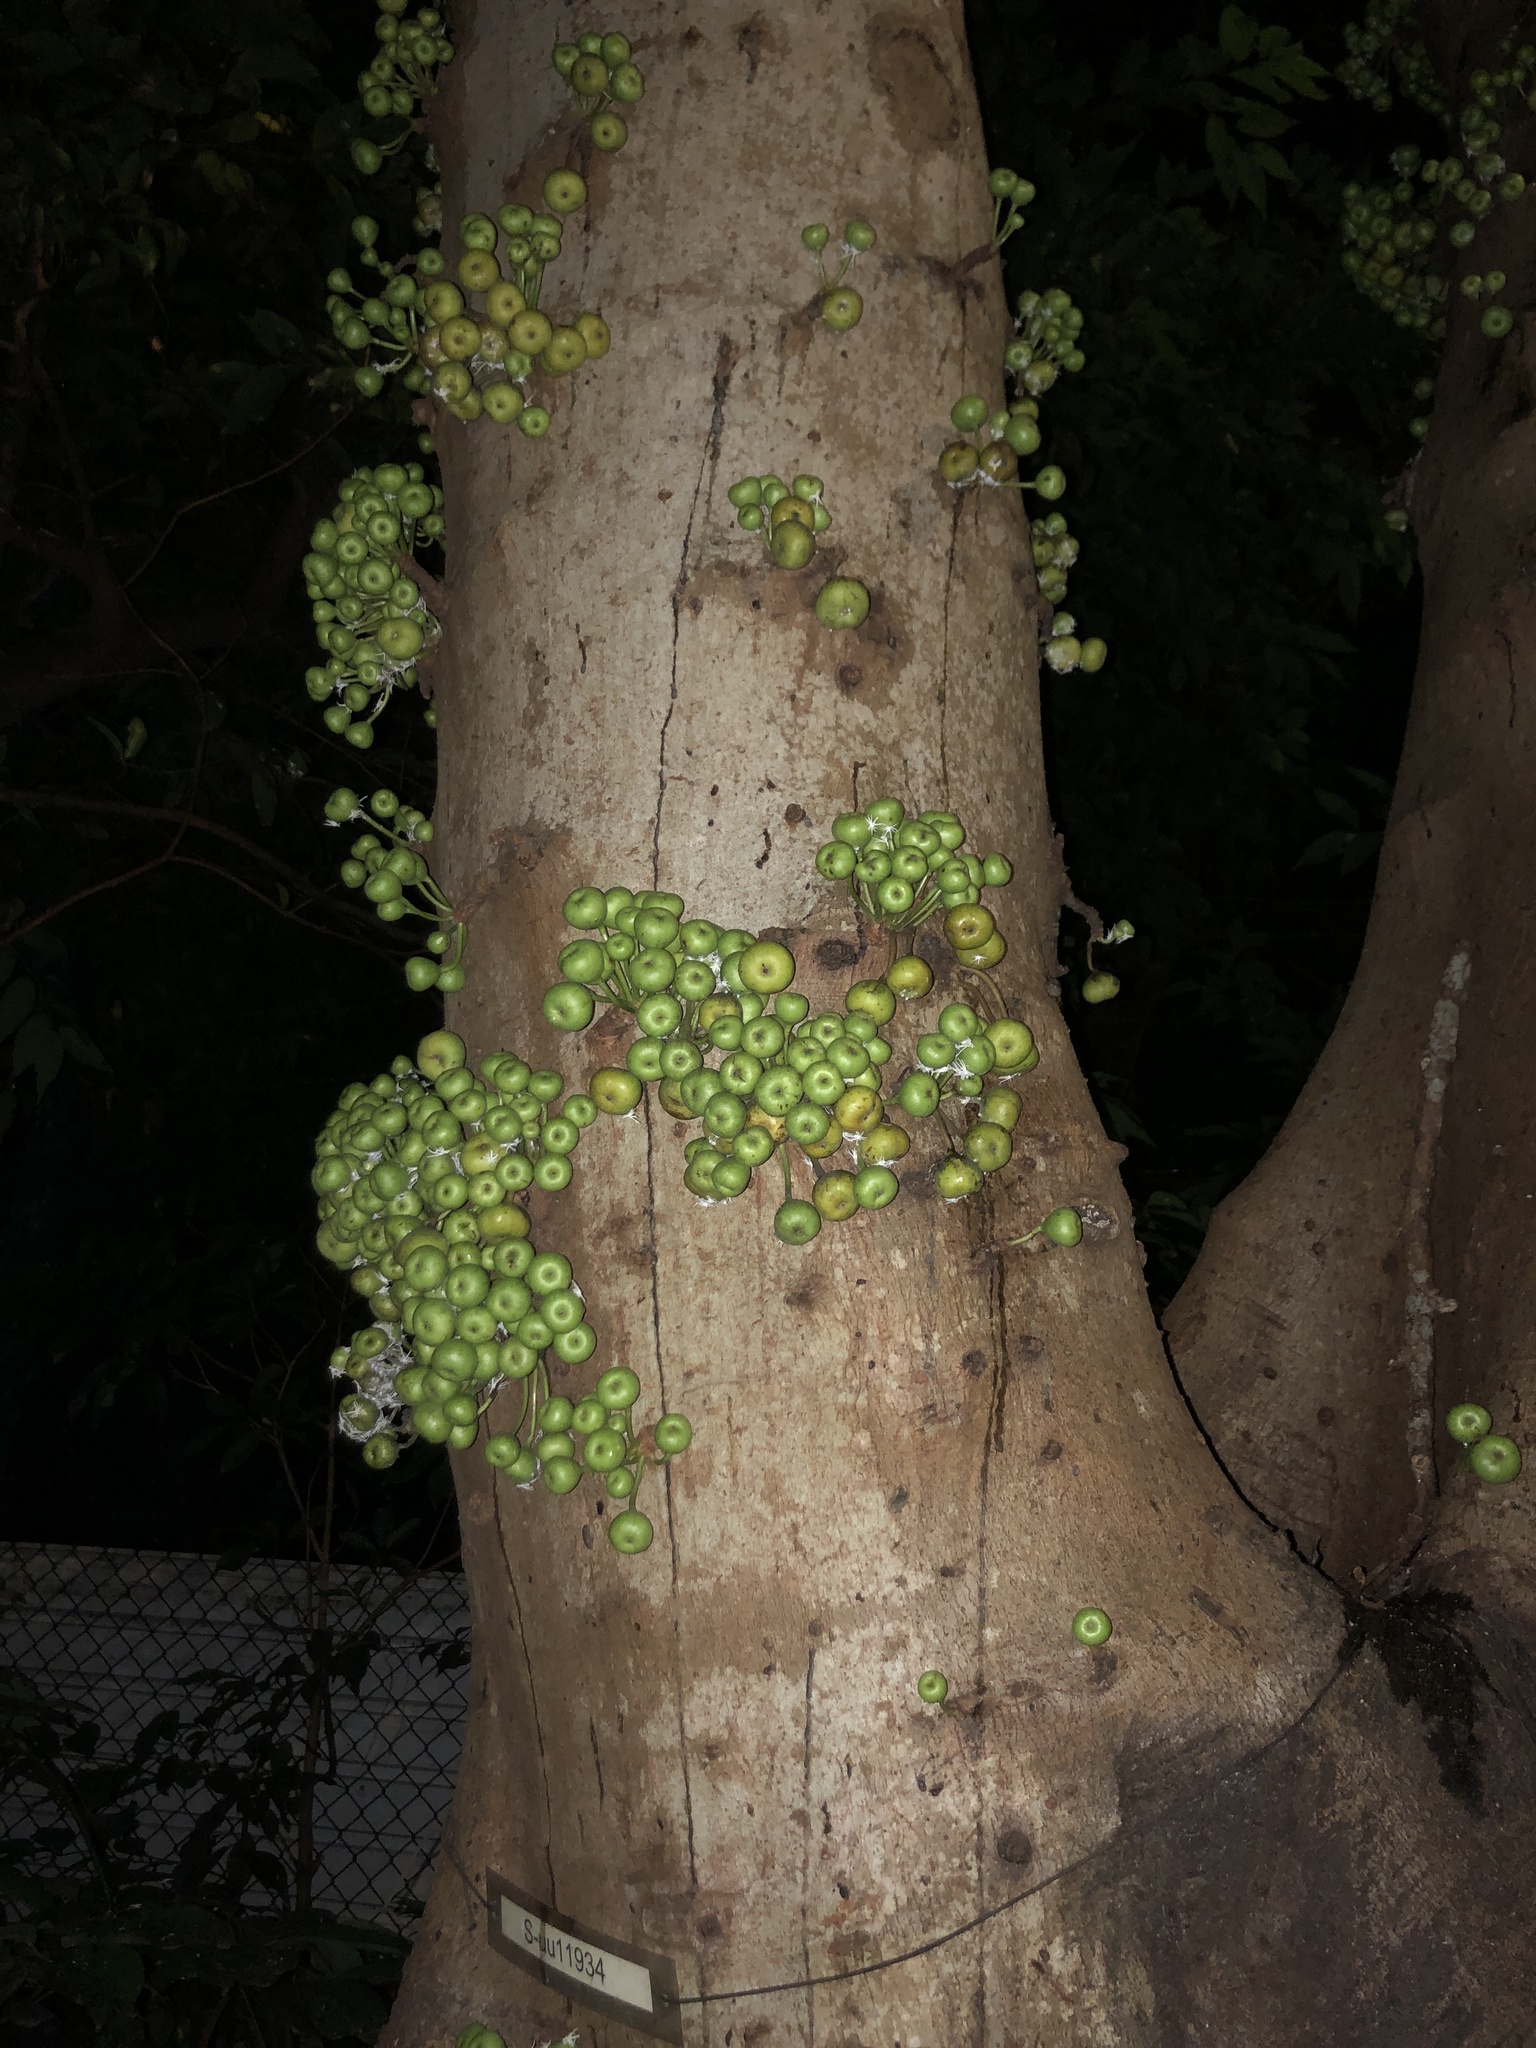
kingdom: Plantae
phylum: Tracheophyta
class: Magnoliopsida
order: Rosales
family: Moraceae
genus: Ficus
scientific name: Ficus variegata
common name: Variegated fig
